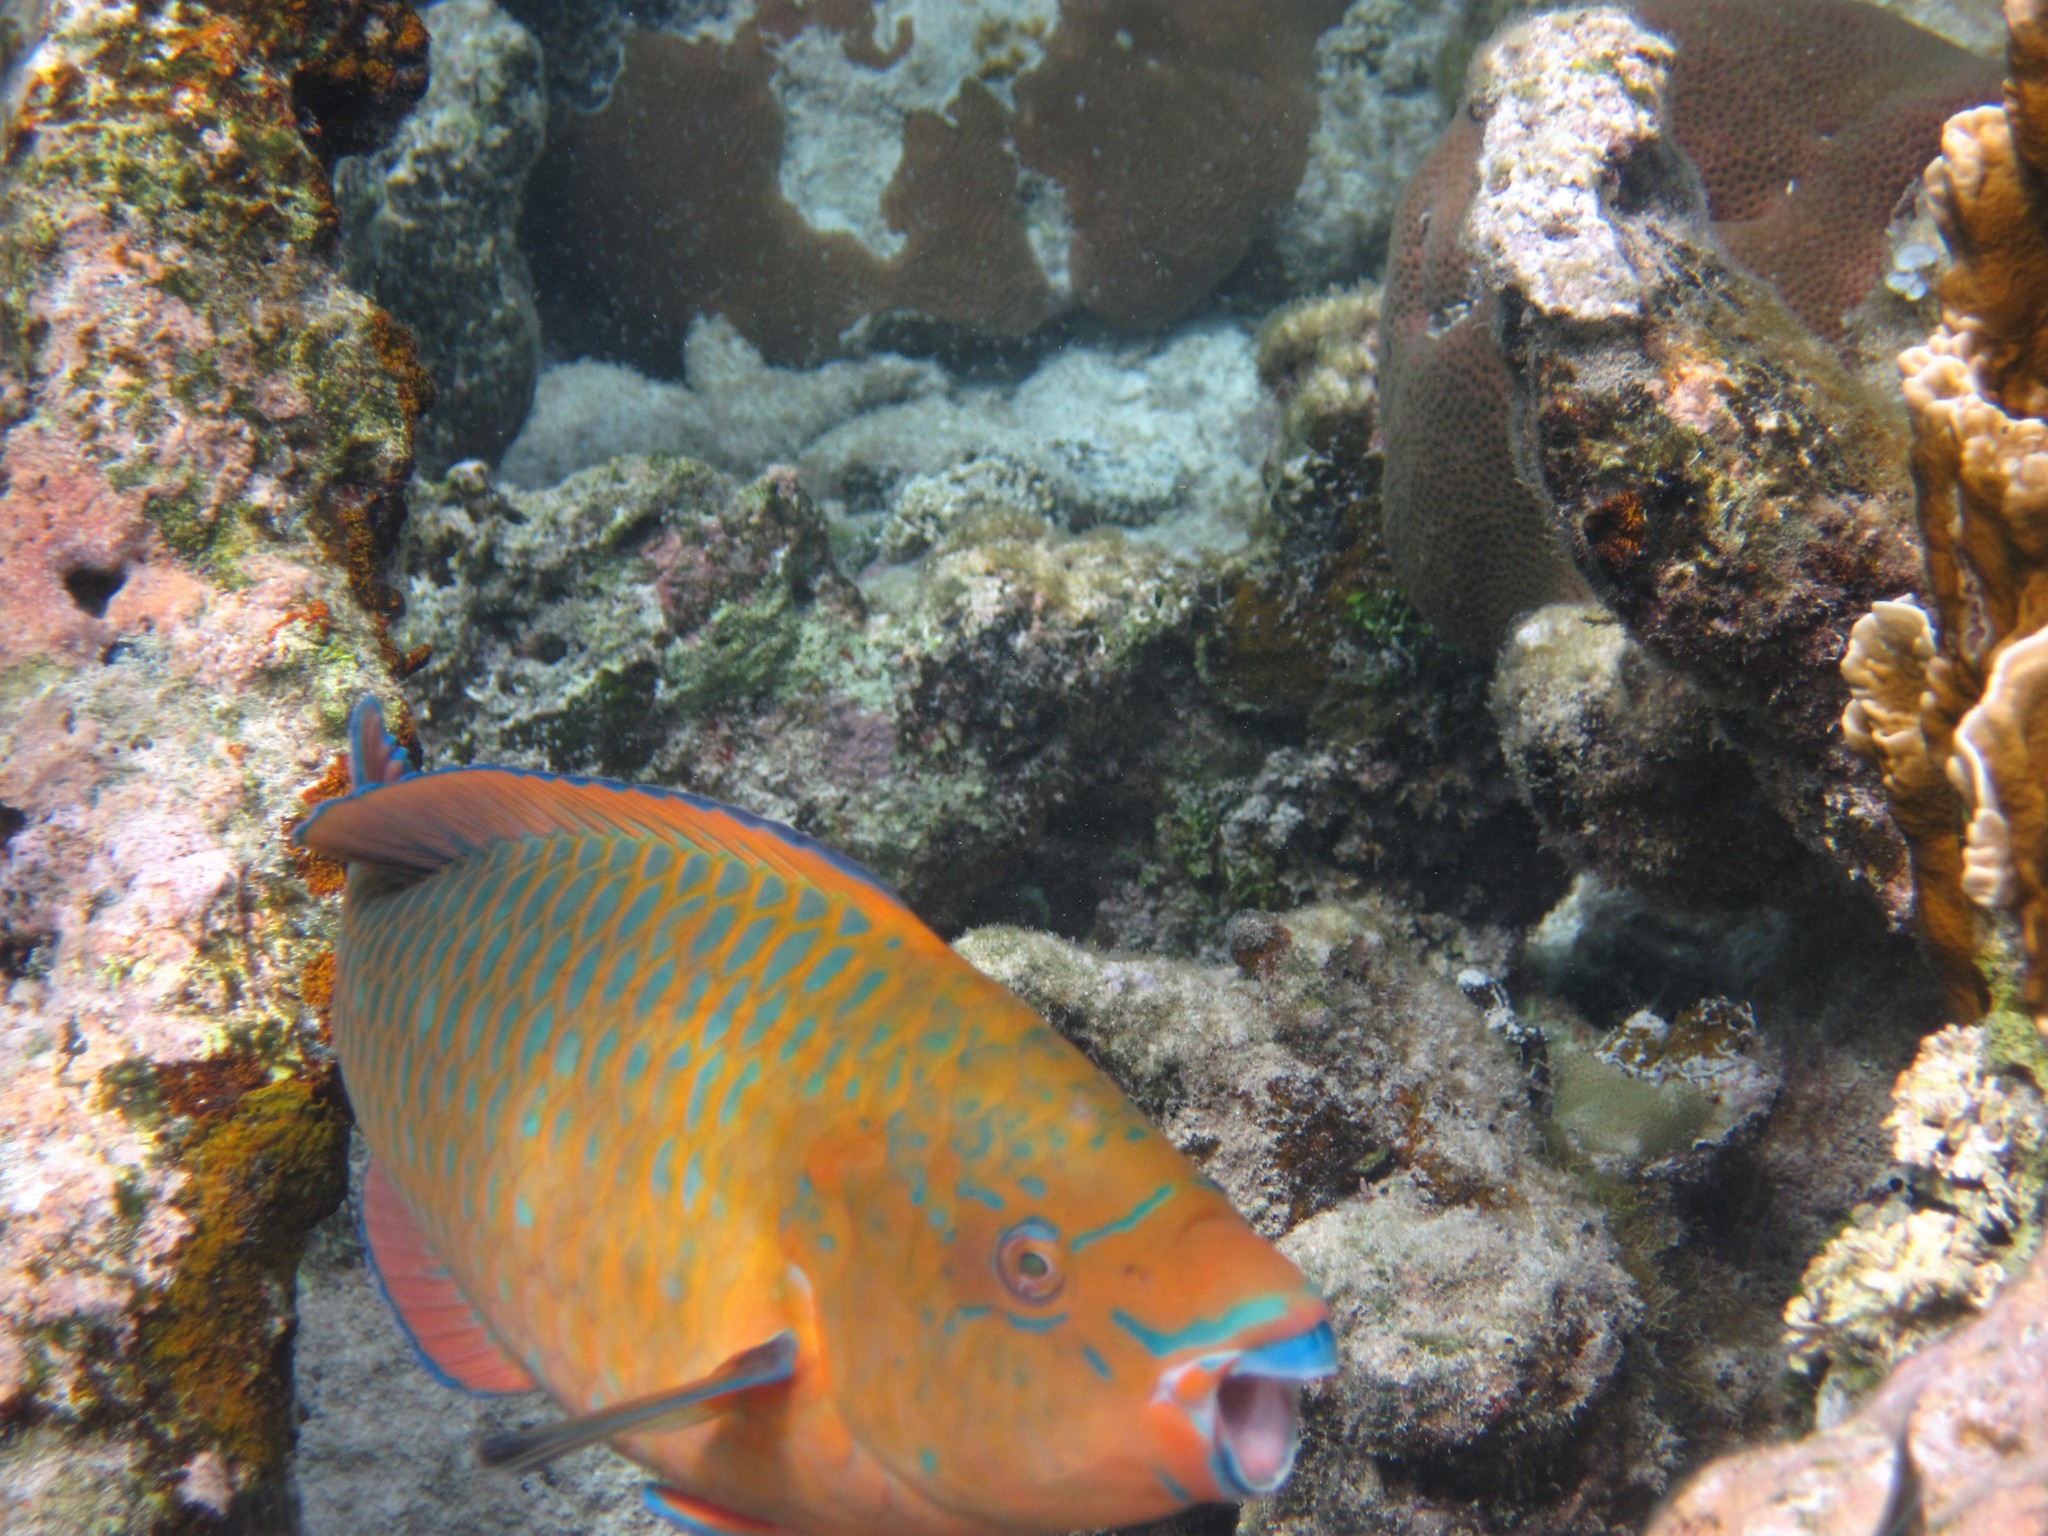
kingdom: Animalia
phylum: Chordata
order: Perciformes
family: Scaridae
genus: Scarus
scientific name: Scarus guacamaia
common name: Rainbow parrotfish
